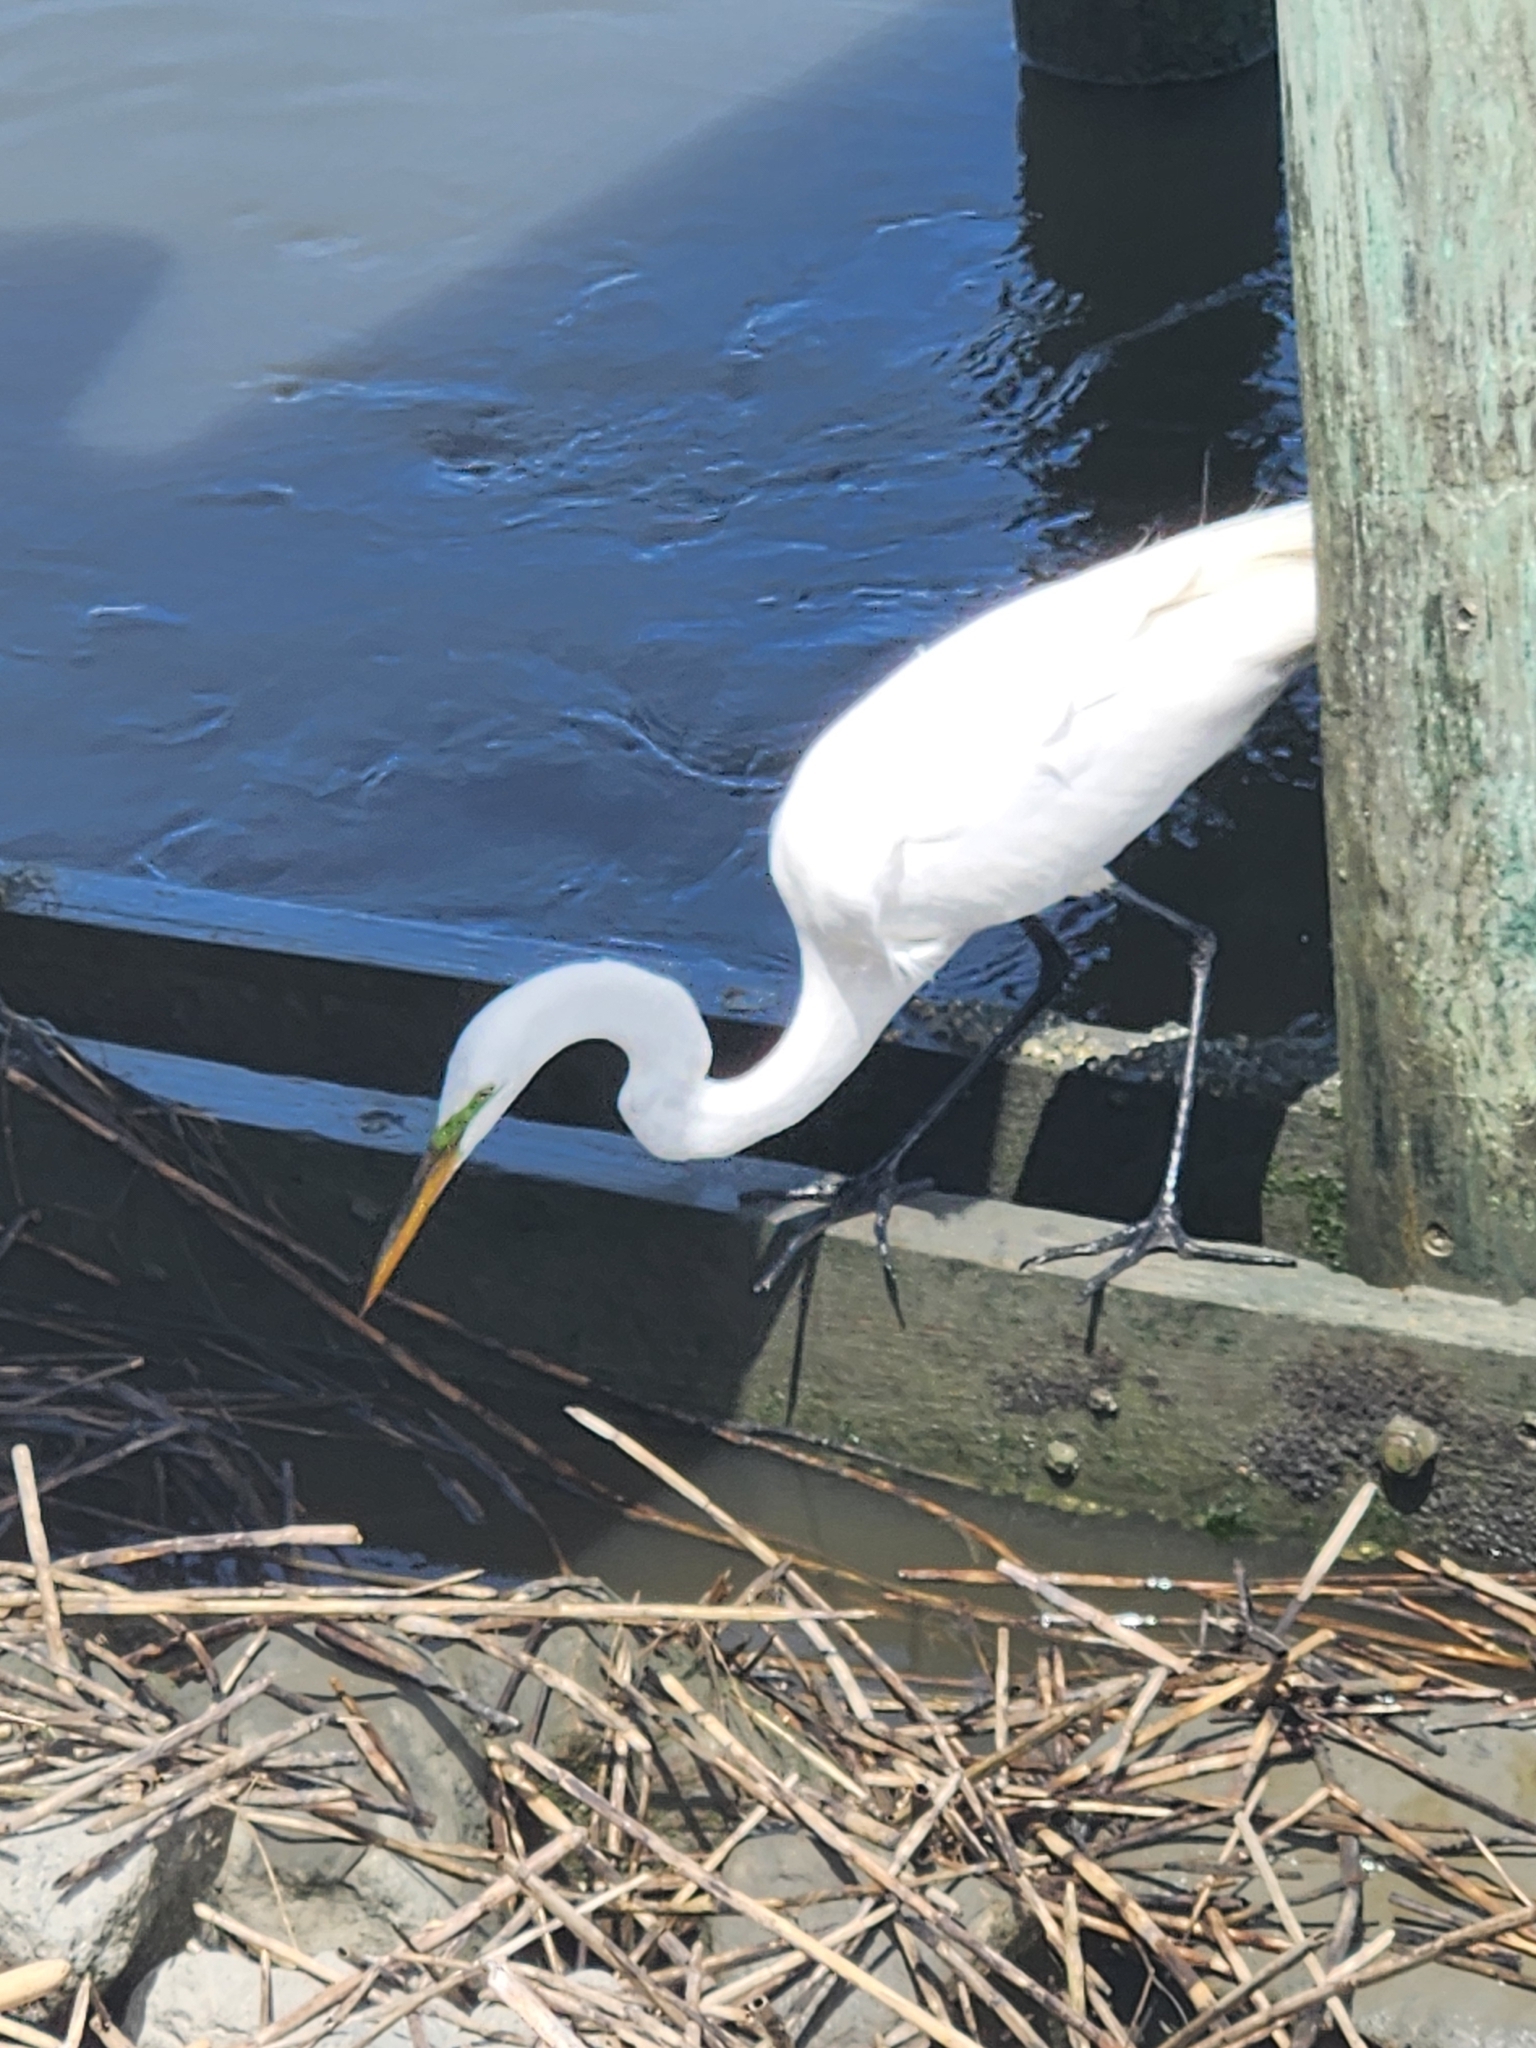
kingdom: Animalia
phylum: Chordata
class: Aves
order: Pelecaniformes
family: Ardeidae
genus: Ardea
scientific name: Ardea alba
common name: Great egret
